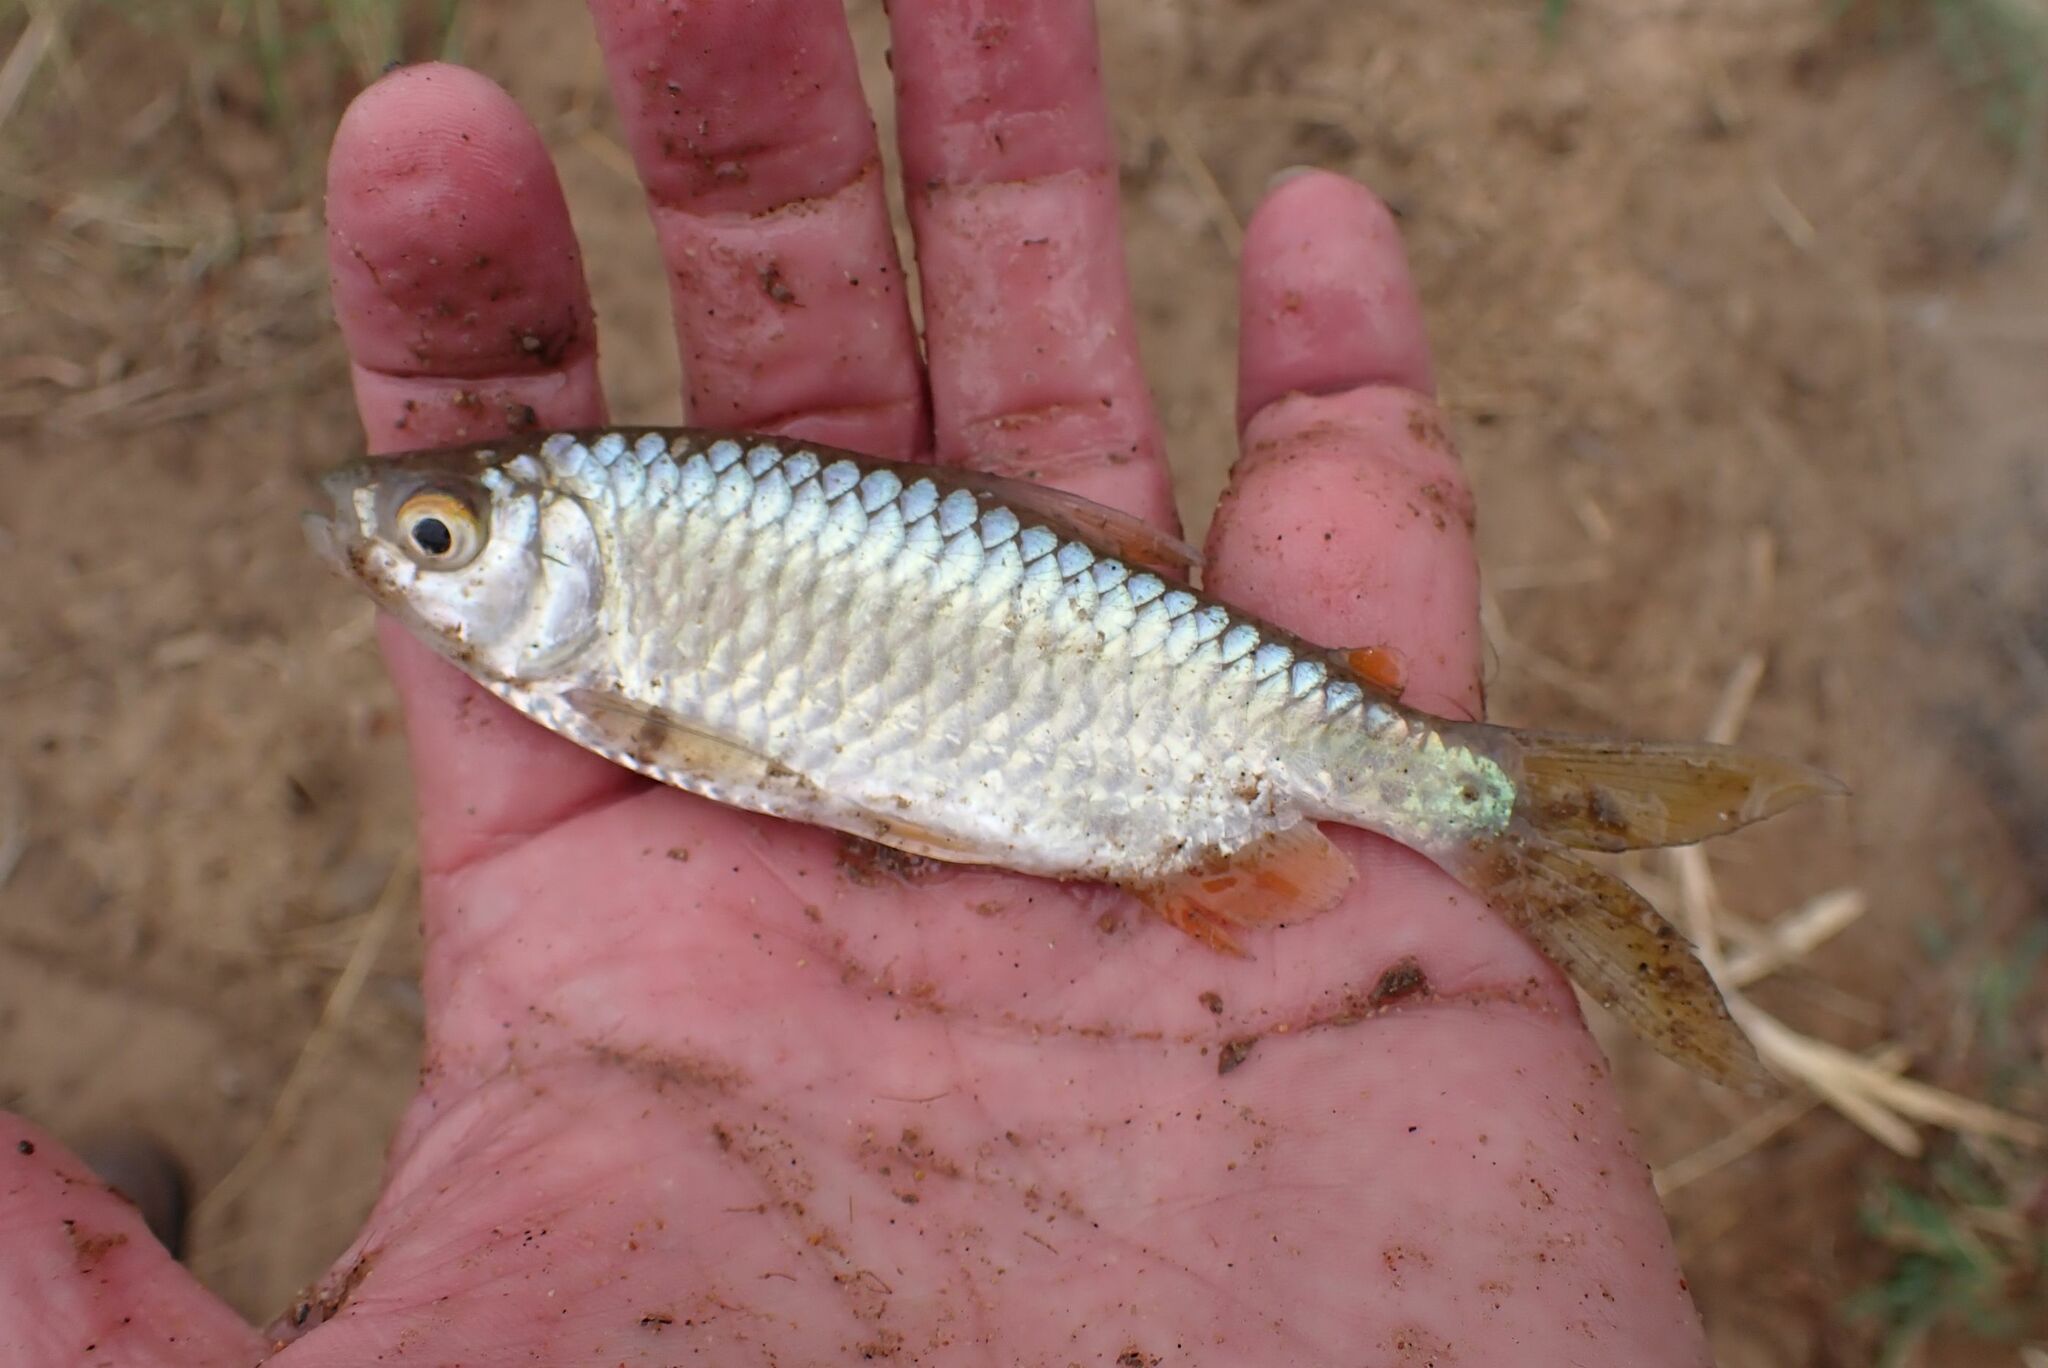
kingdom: Animalia
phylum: Chordata
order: Characiformes
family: Alestidae
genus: Brycinus
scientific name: Brycinus imberi
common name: Imberi
